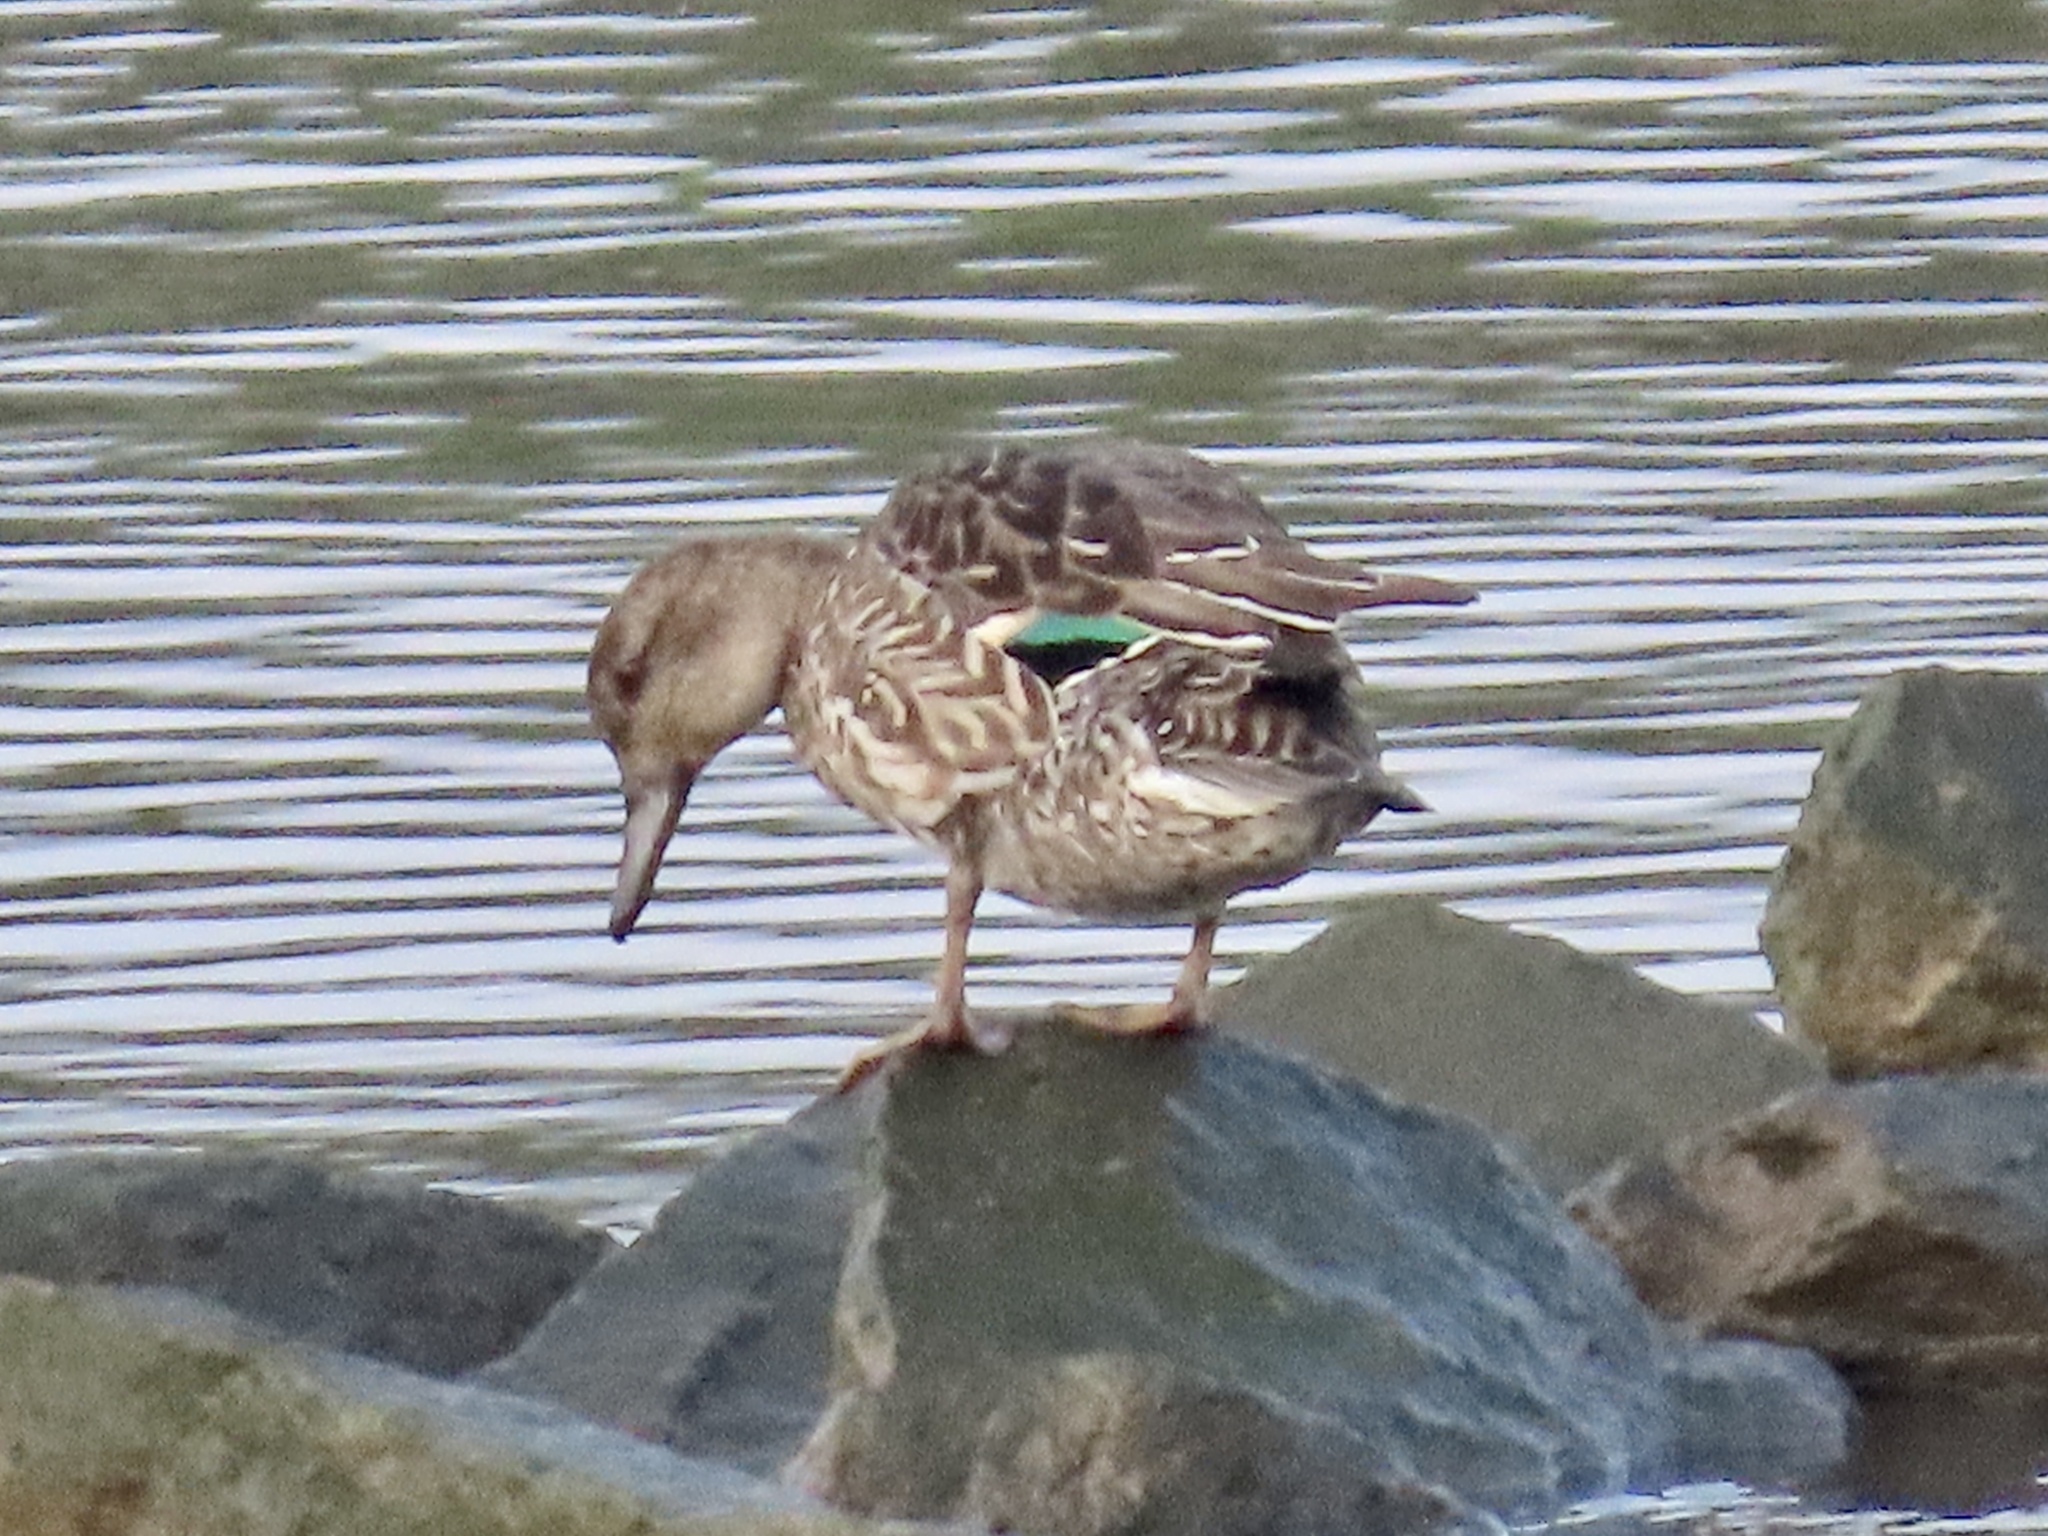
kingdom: Animalia
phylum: Chordata
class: Aves
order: Anseriformes
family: Anatidae
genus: Anas
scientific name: Anas crecca
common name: Eurasian teal
